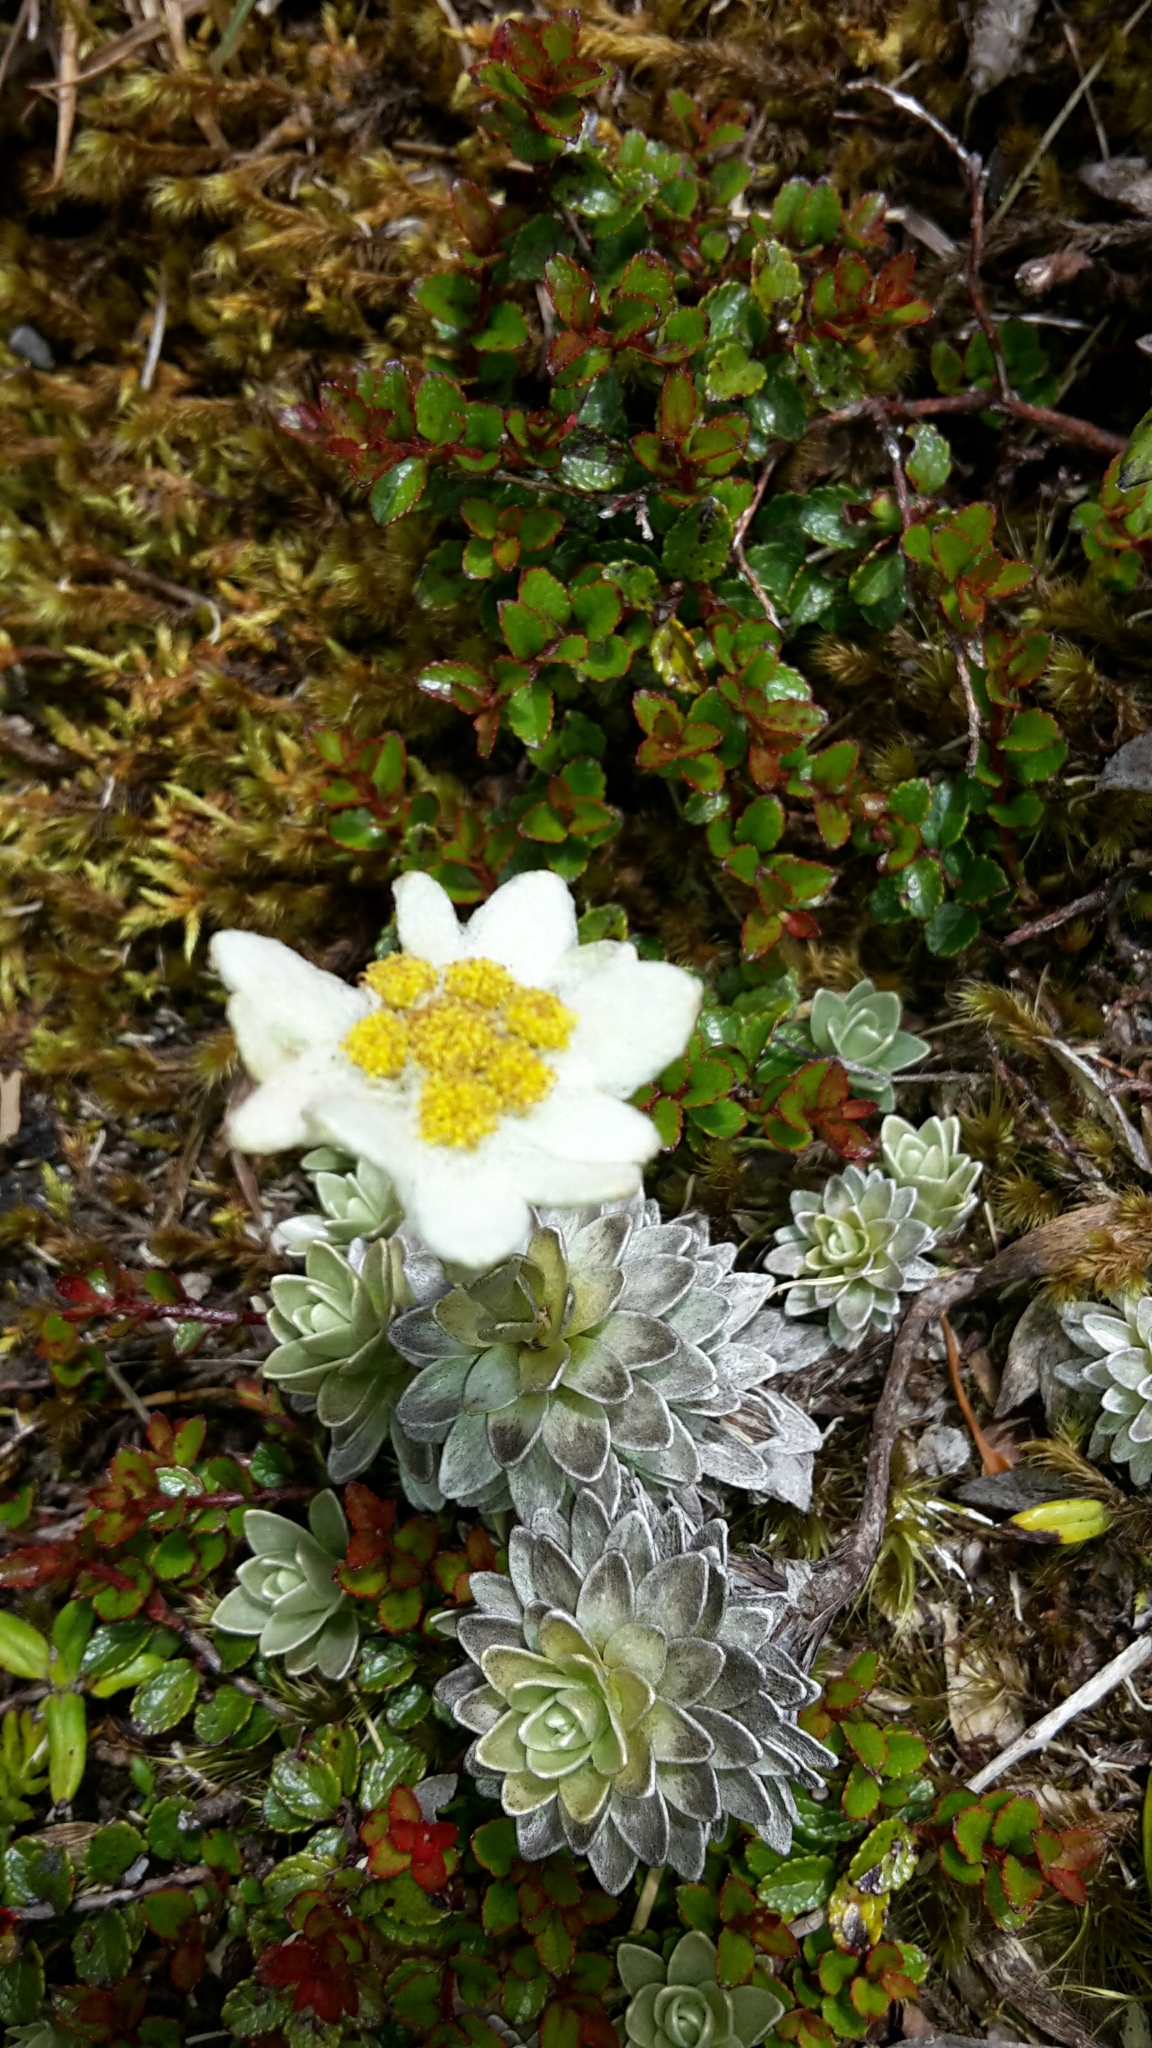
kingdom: Plantae
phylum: Tracheophyta
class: Magnoliopsida
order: Asterales
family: Asteraceae
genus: Leucogenes
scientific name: Leucogenes leontopodium
